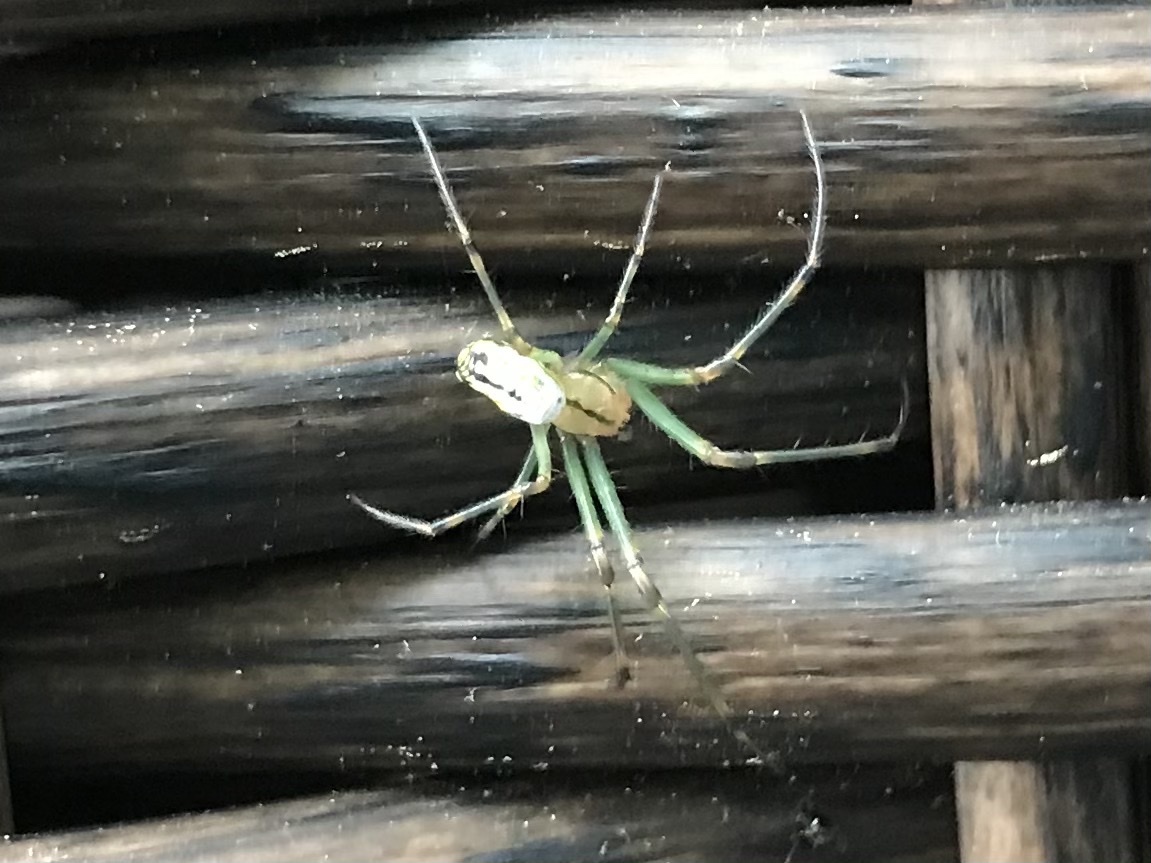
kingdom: Animalia
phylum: Arthropoda
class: Arachnida
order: Araneae
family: Tetragnathidae
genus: Leucauge
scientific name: Leucauge venusta
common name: Longjawed orb weavers
